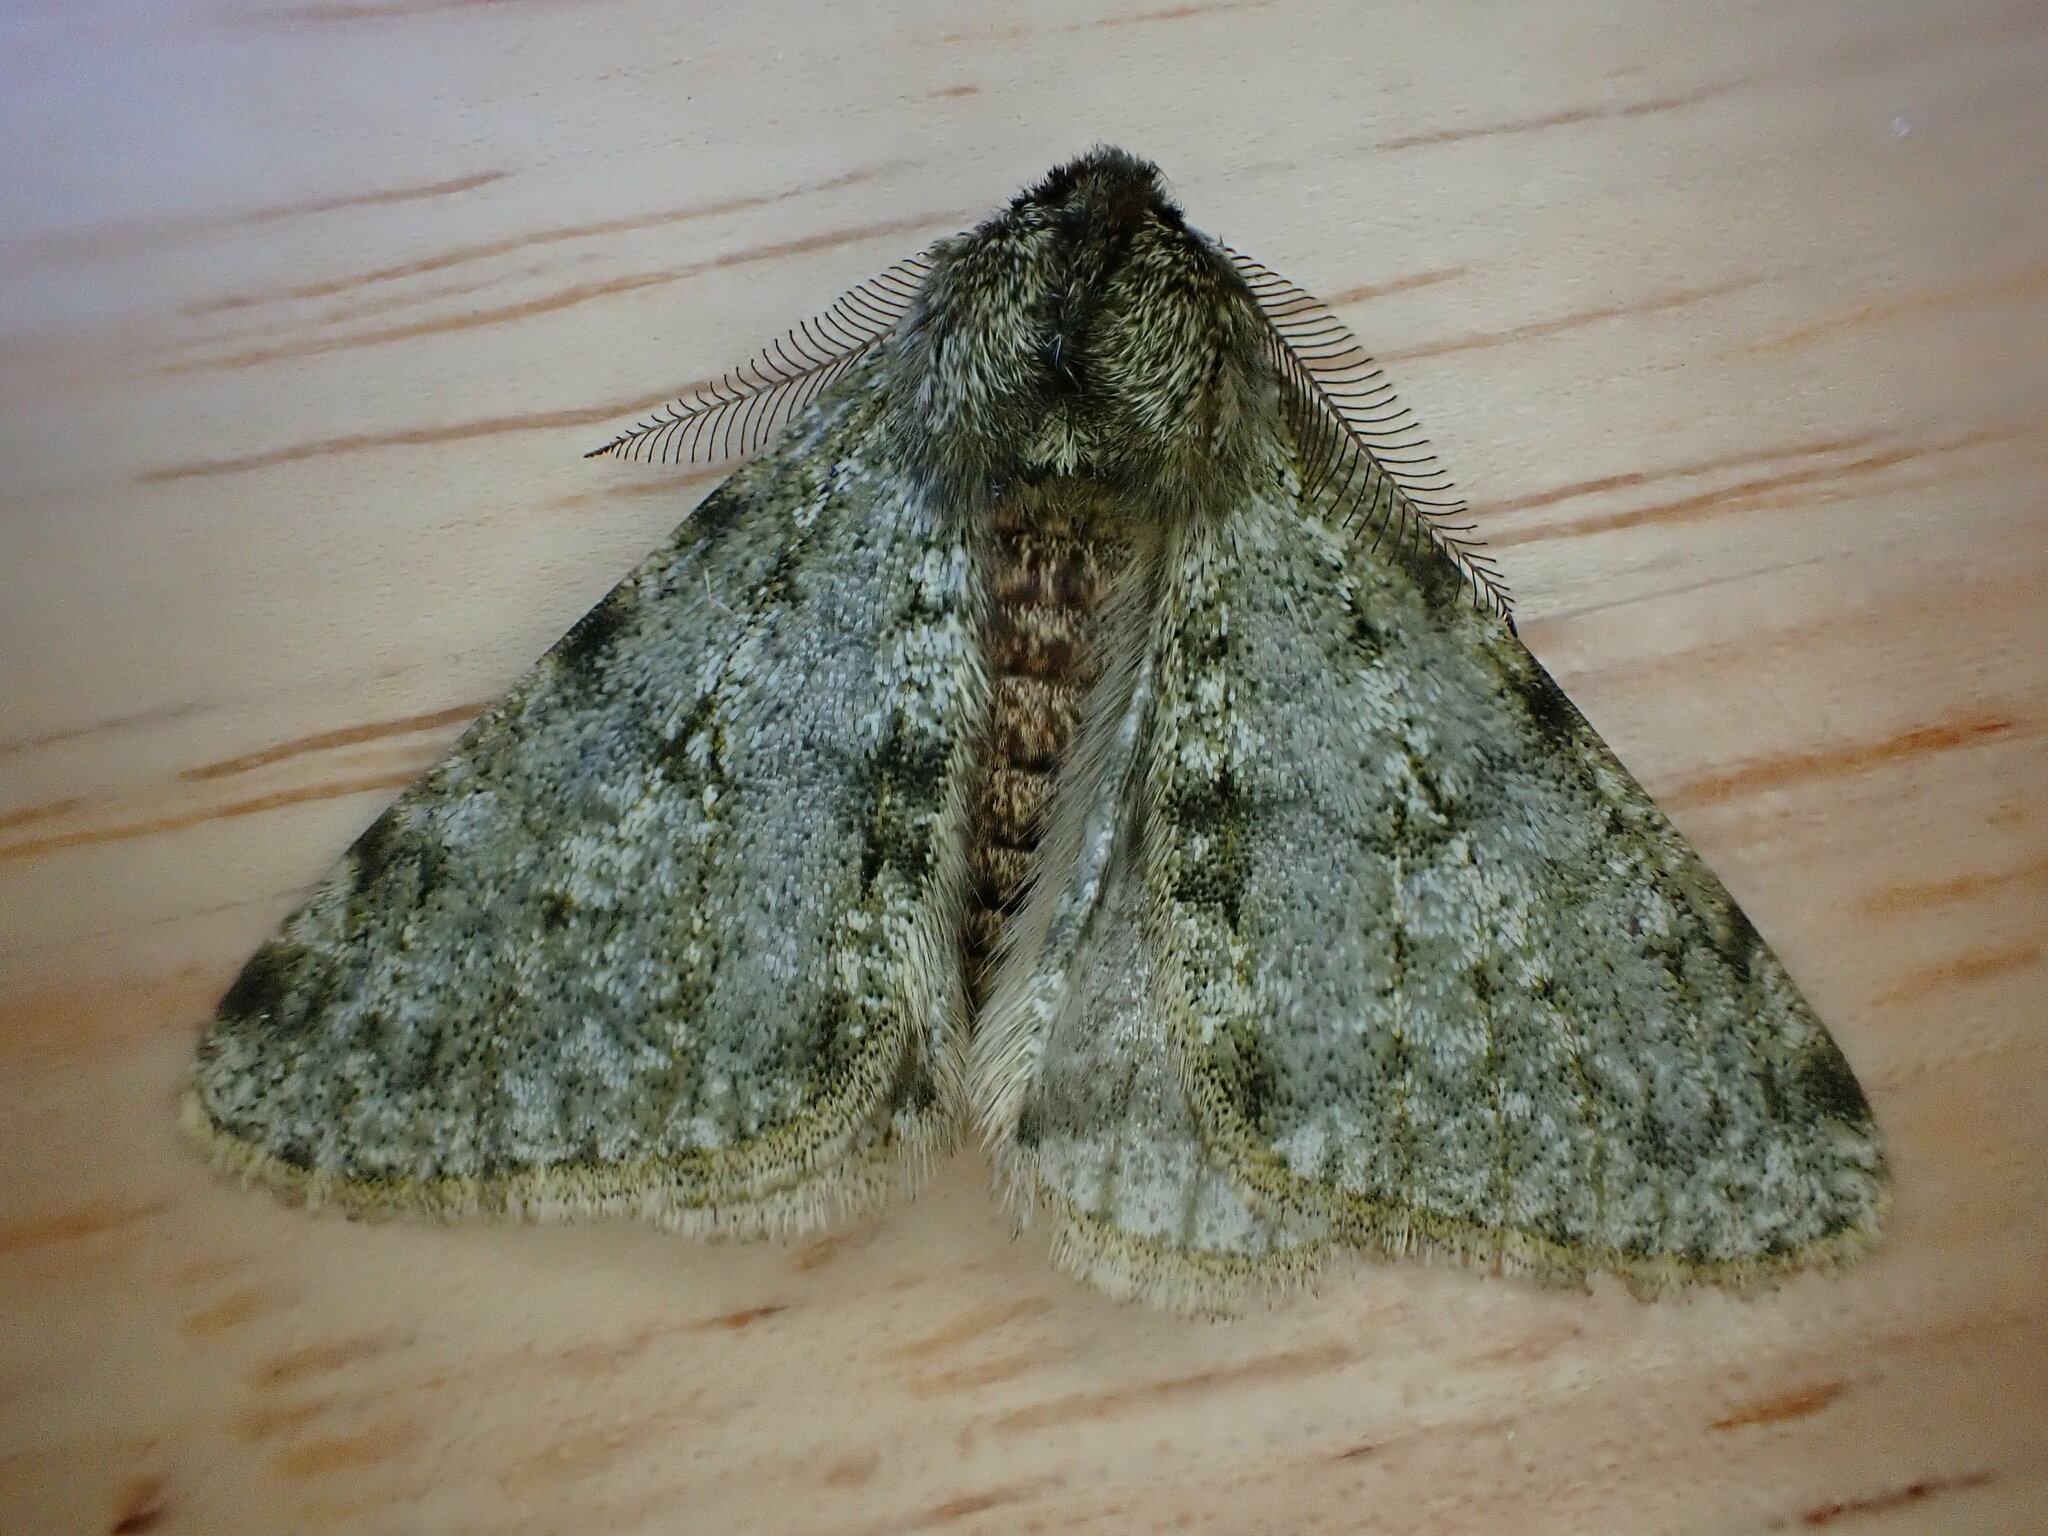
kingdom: Animalia
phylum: Arthropoda
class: Insecta
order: Lepidoptera
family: Geometridae
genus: Phigalia
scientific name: Phigalia pilosaria
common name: Pale brindled beauty
